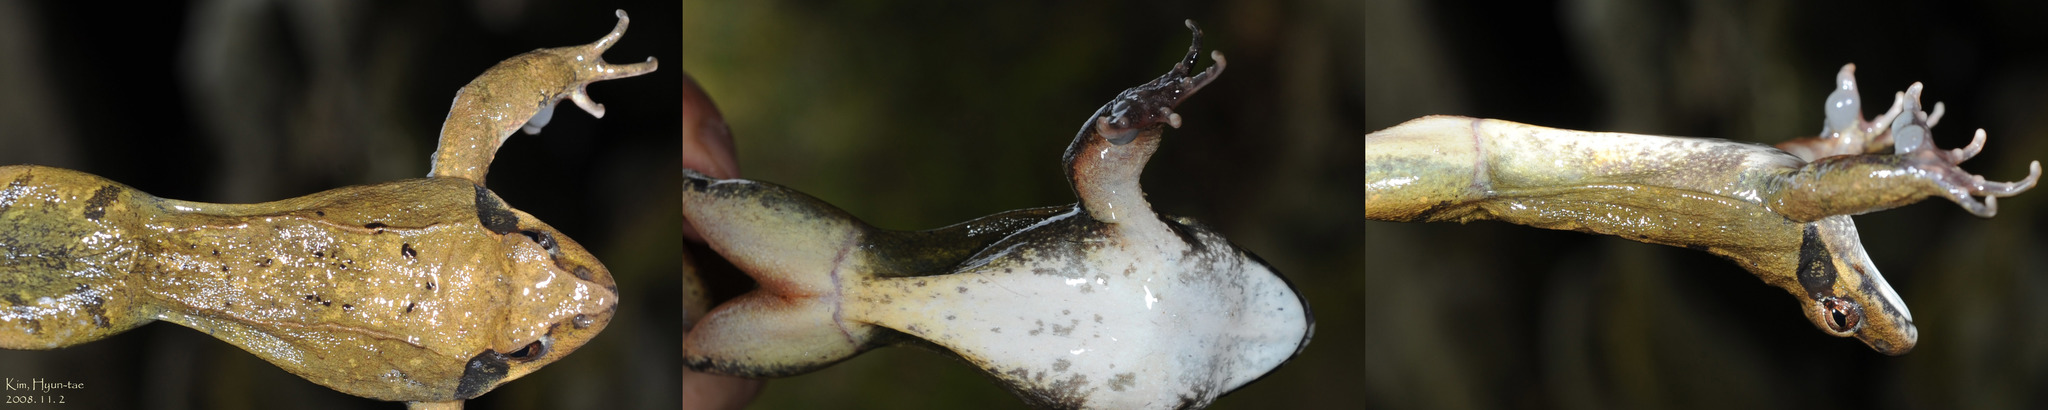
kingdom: Animalia
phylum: Chordata
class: Amphibia
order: Anura
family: Ranidae
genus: Rana
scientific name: Rana uenoi
